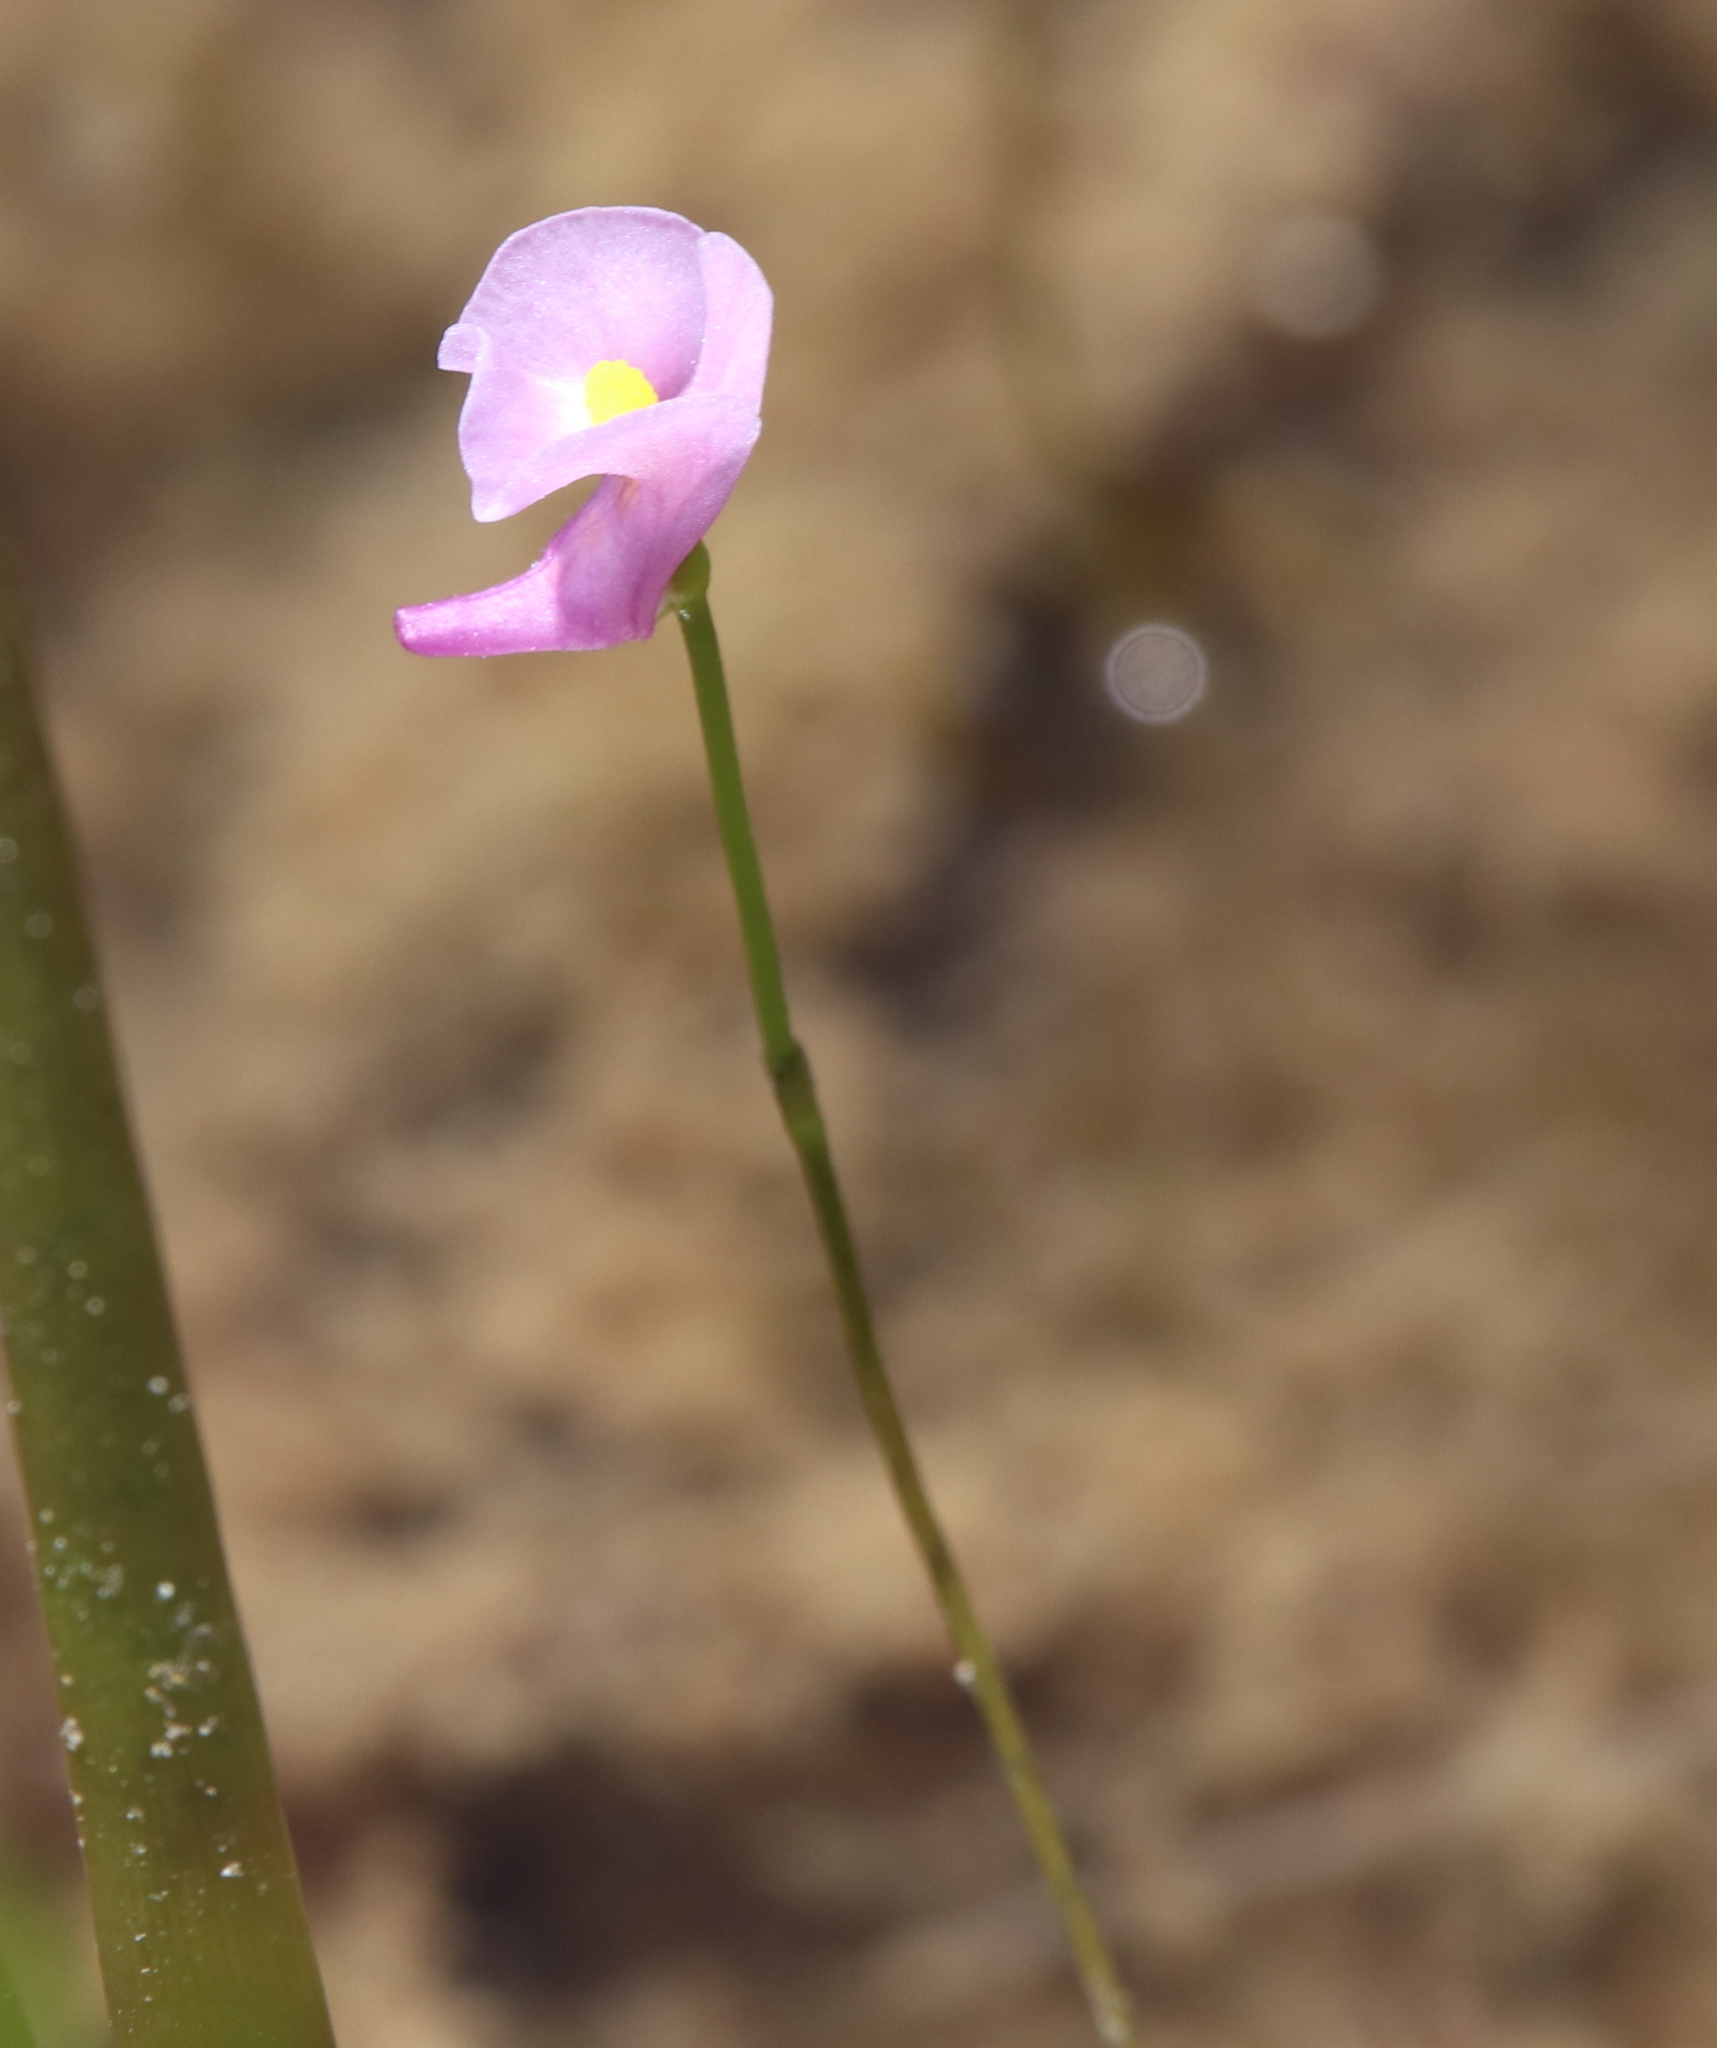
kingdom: Plantae
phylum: Tracheophyta
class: Magnoliopsida
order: Lamiales
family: Lentibulariaceae
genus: Utricularia
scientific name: Utricularia resupinata
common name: Northeastern bladderwort
